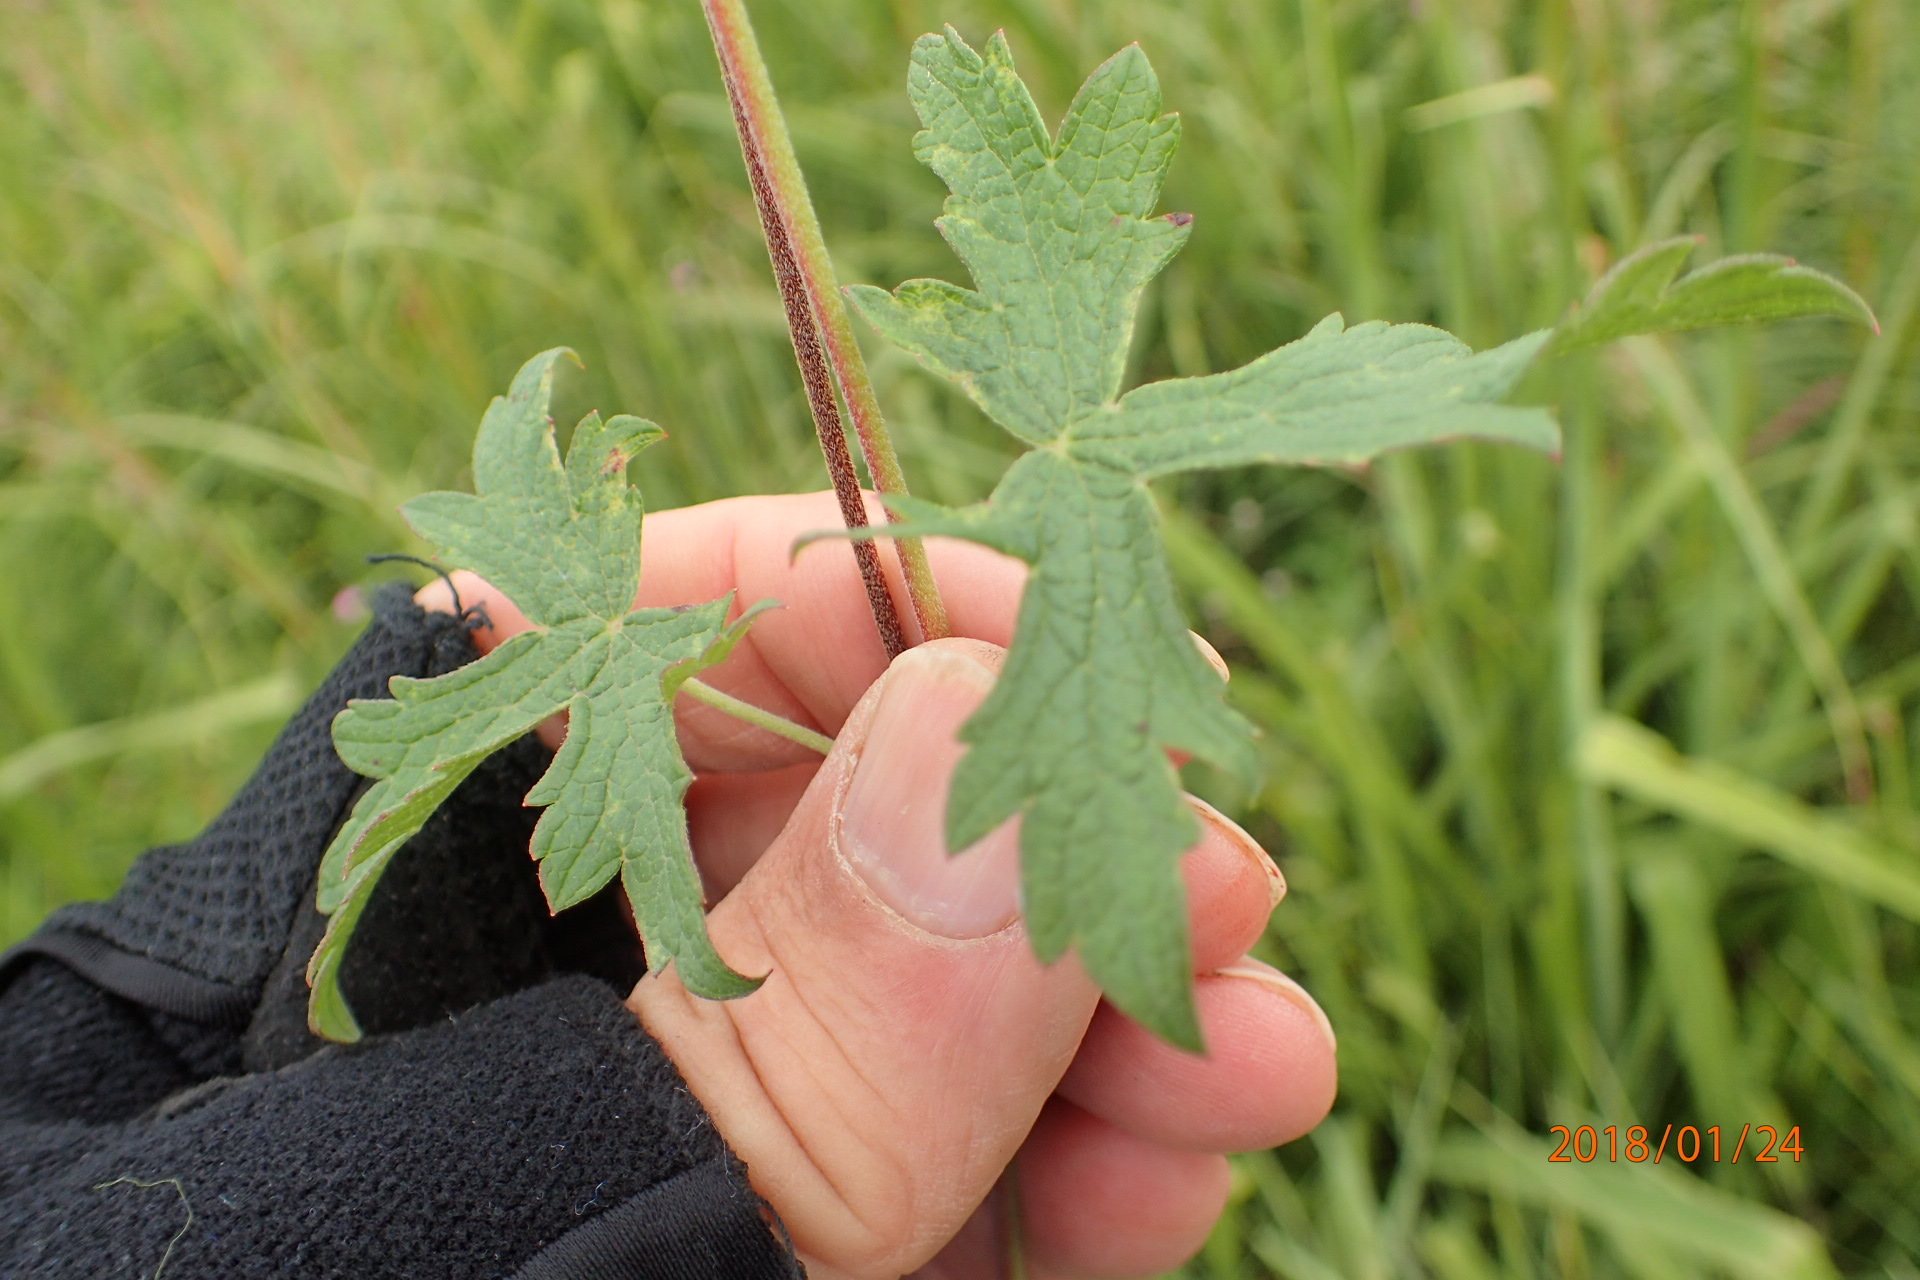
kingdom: Plantae
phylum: Tracheophyta
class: Magnoliopsida
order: Geraniales
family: Geraniaceae
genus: Geranium
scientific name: Geranium caffrum
